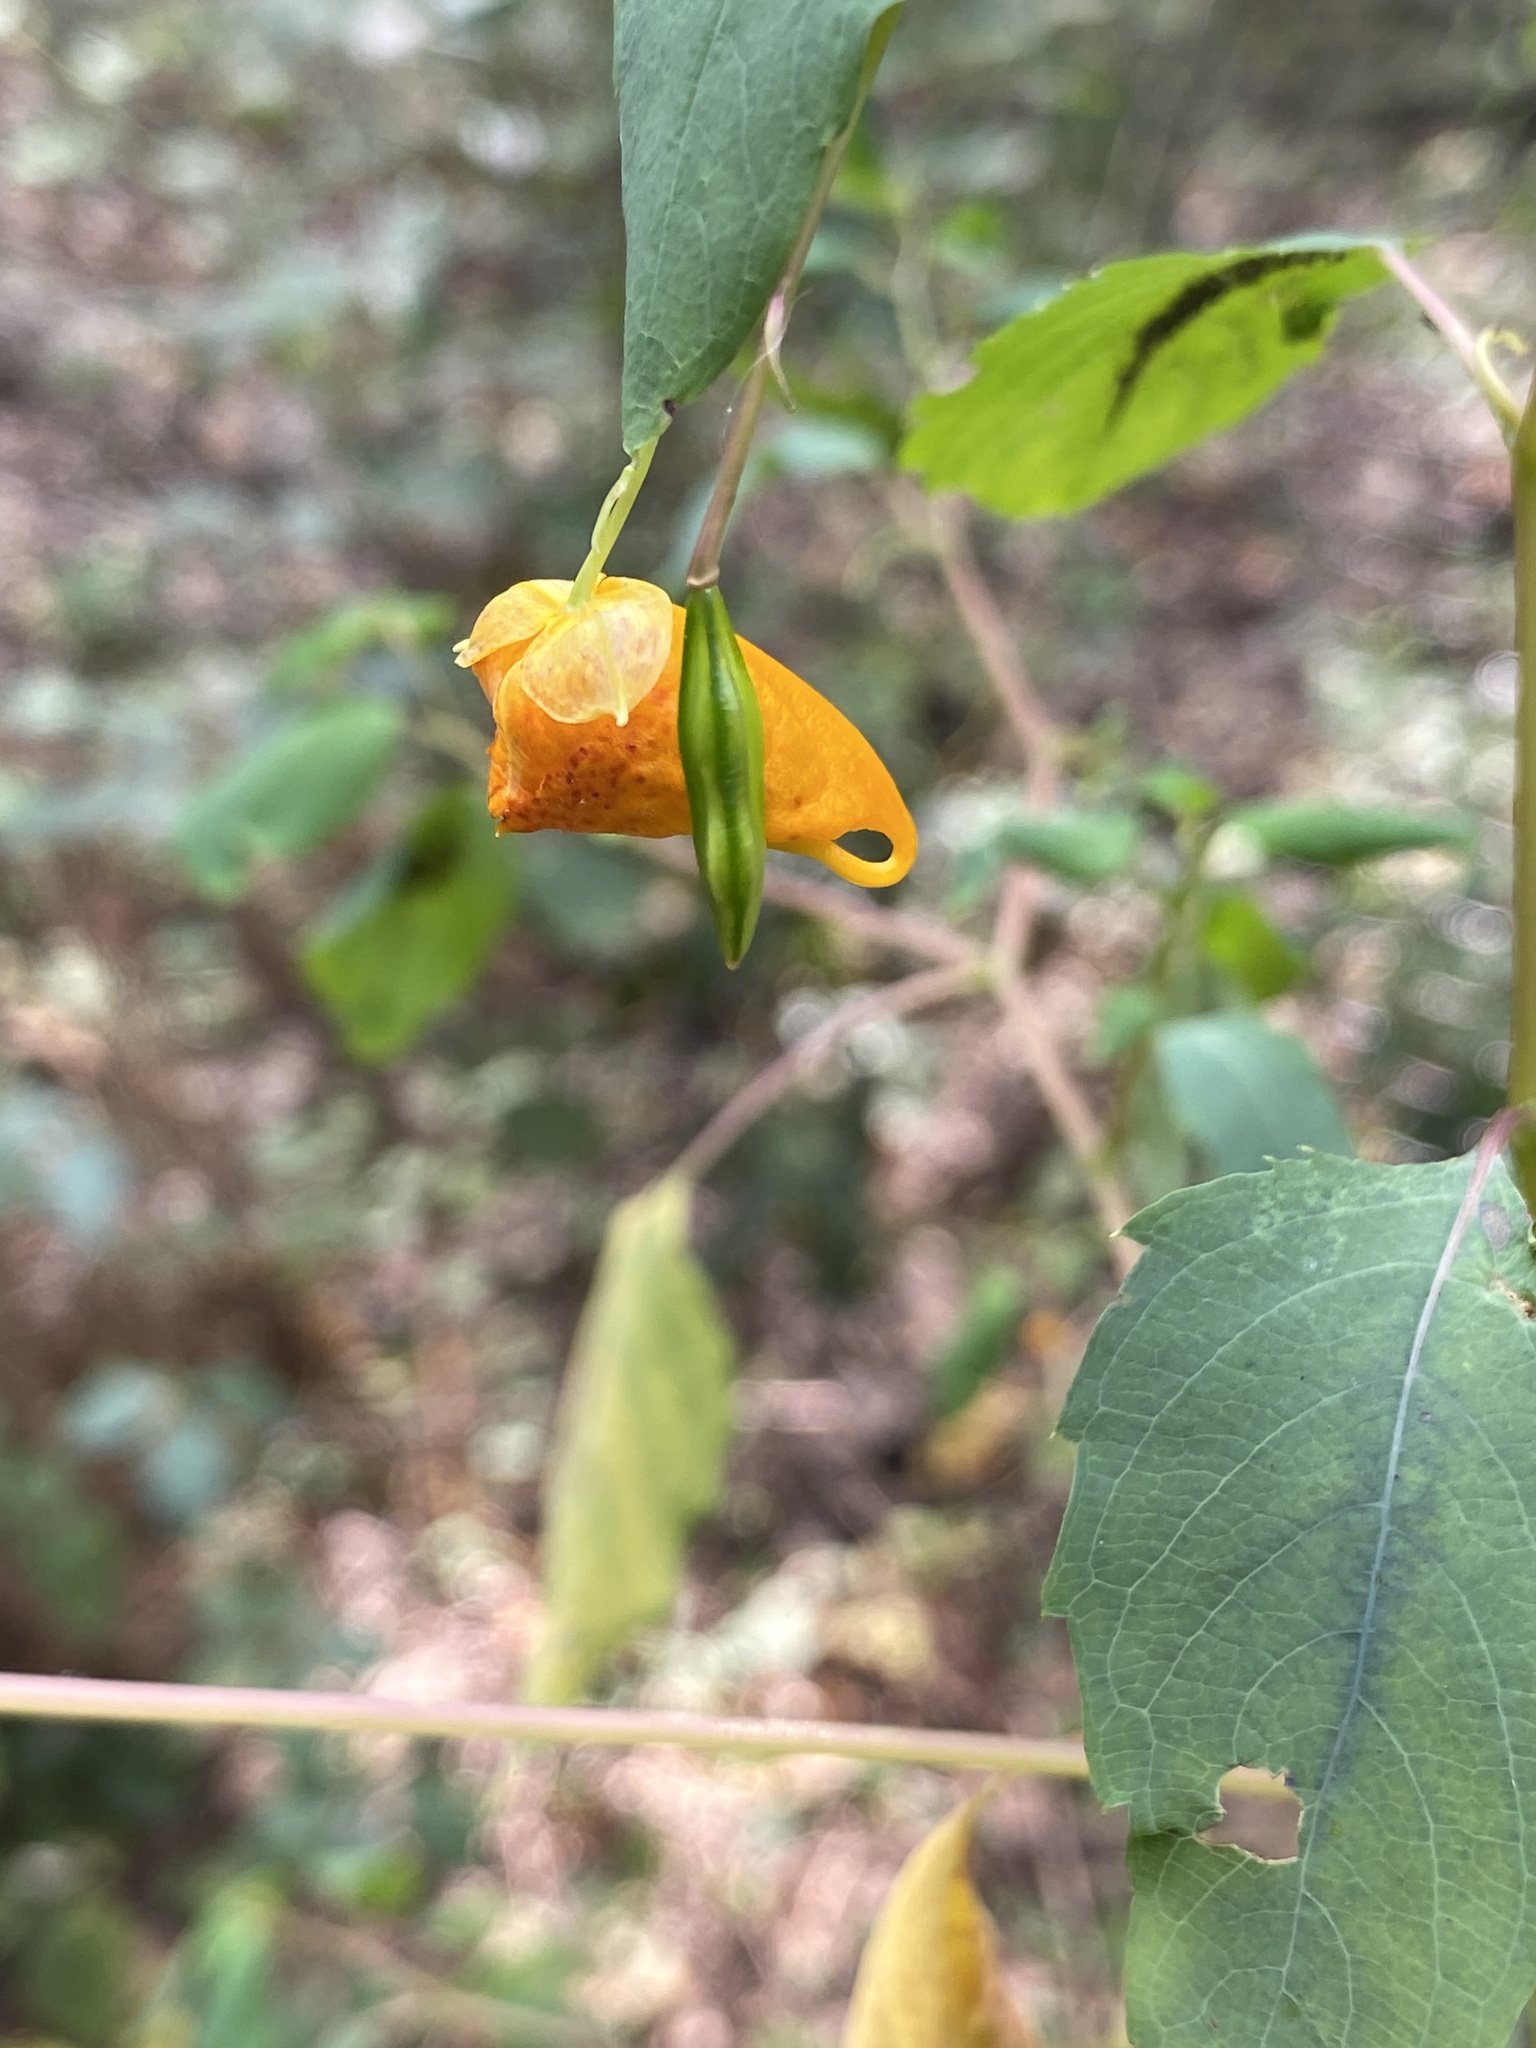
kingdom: Plantae
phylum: Tracheophyta
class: Magnoliopsida
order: Ericales
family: Balsaminaceae
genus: Impatiens
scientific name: Impatiens capensis
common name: Orange balsam
